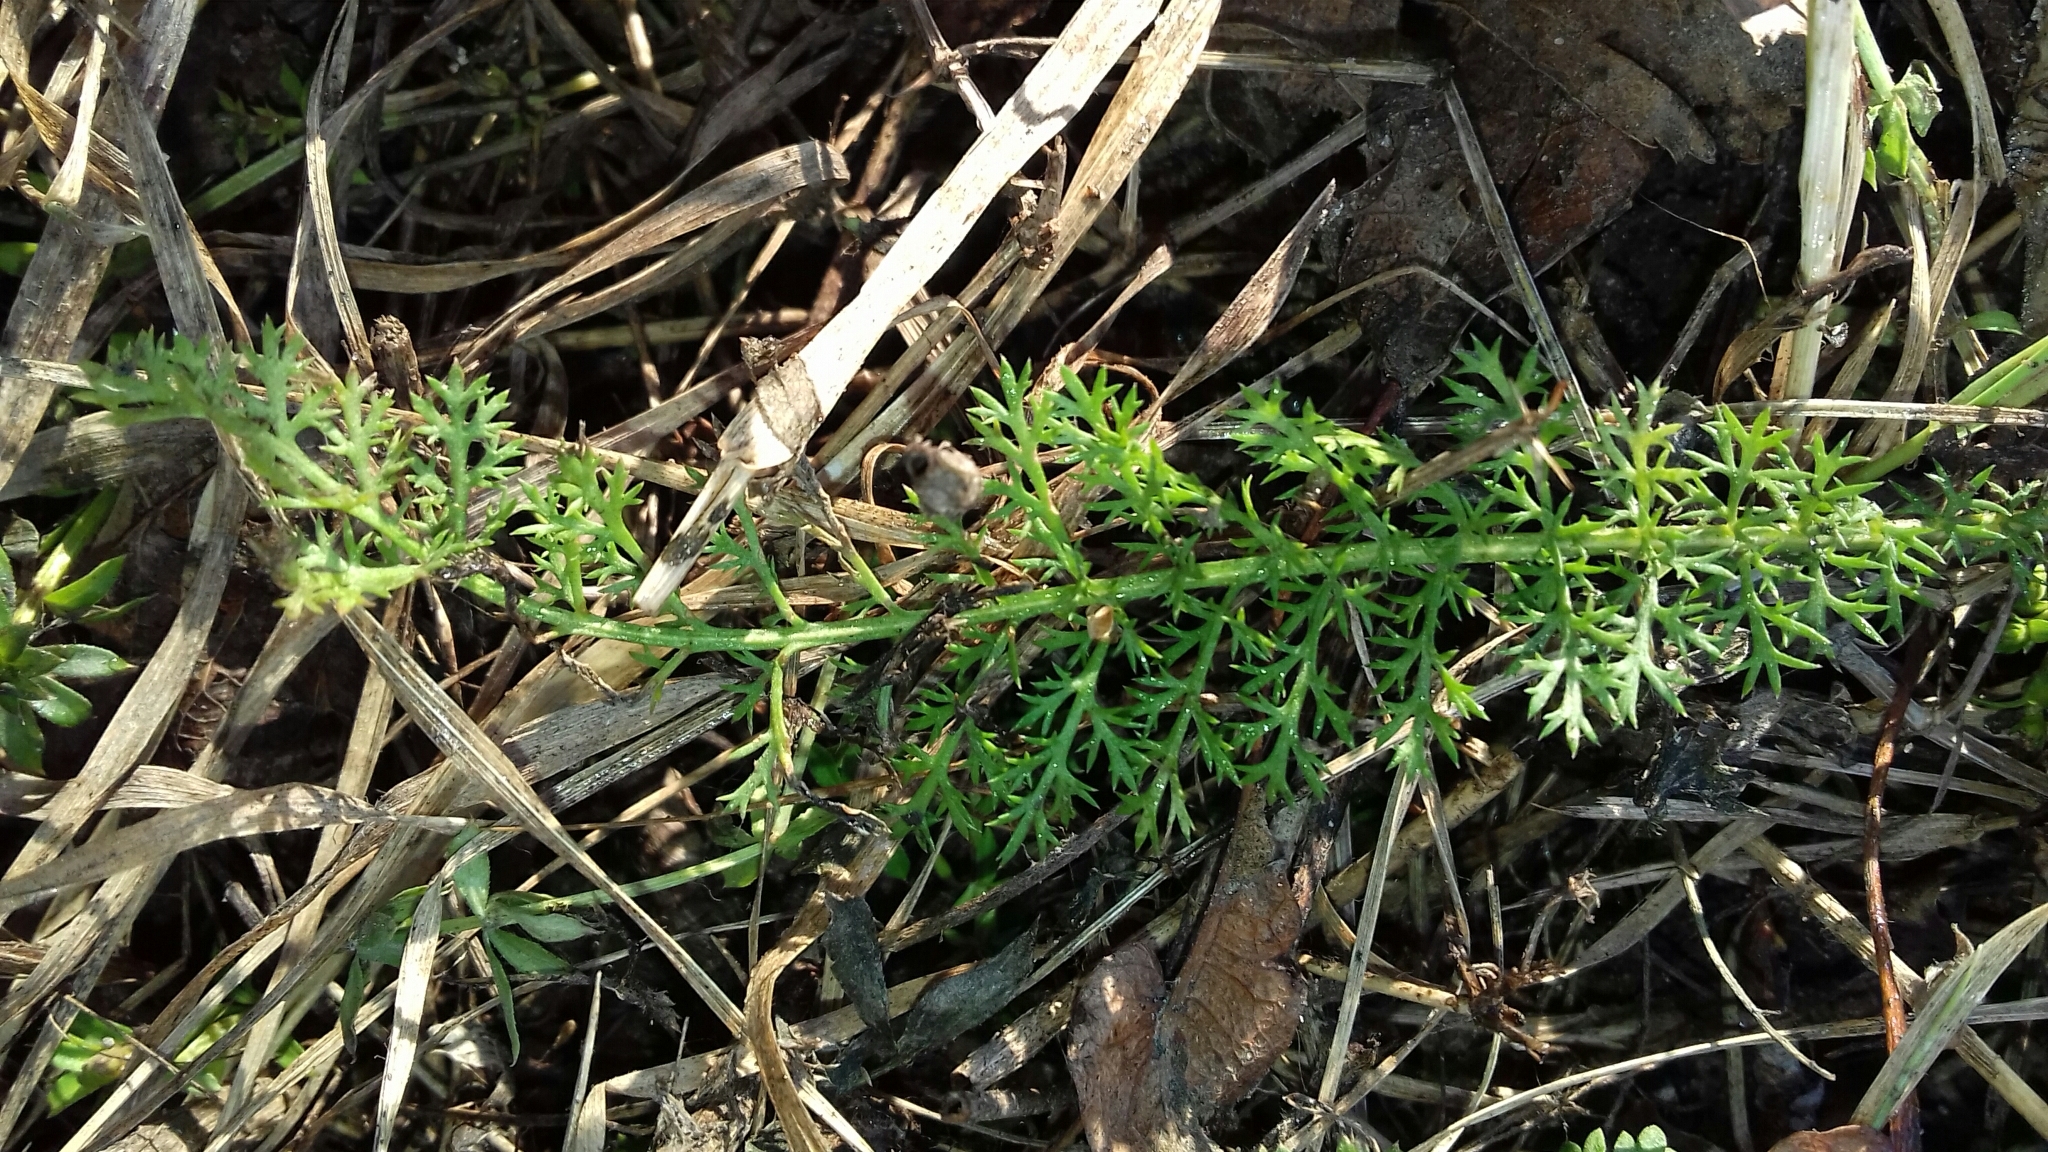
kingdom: Plantae
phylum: Tracheophyta
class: Magnoliopsida
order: Asterales
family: Asteraceae
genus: Achillea
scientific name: Achillea millefolium
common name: Yarrow
